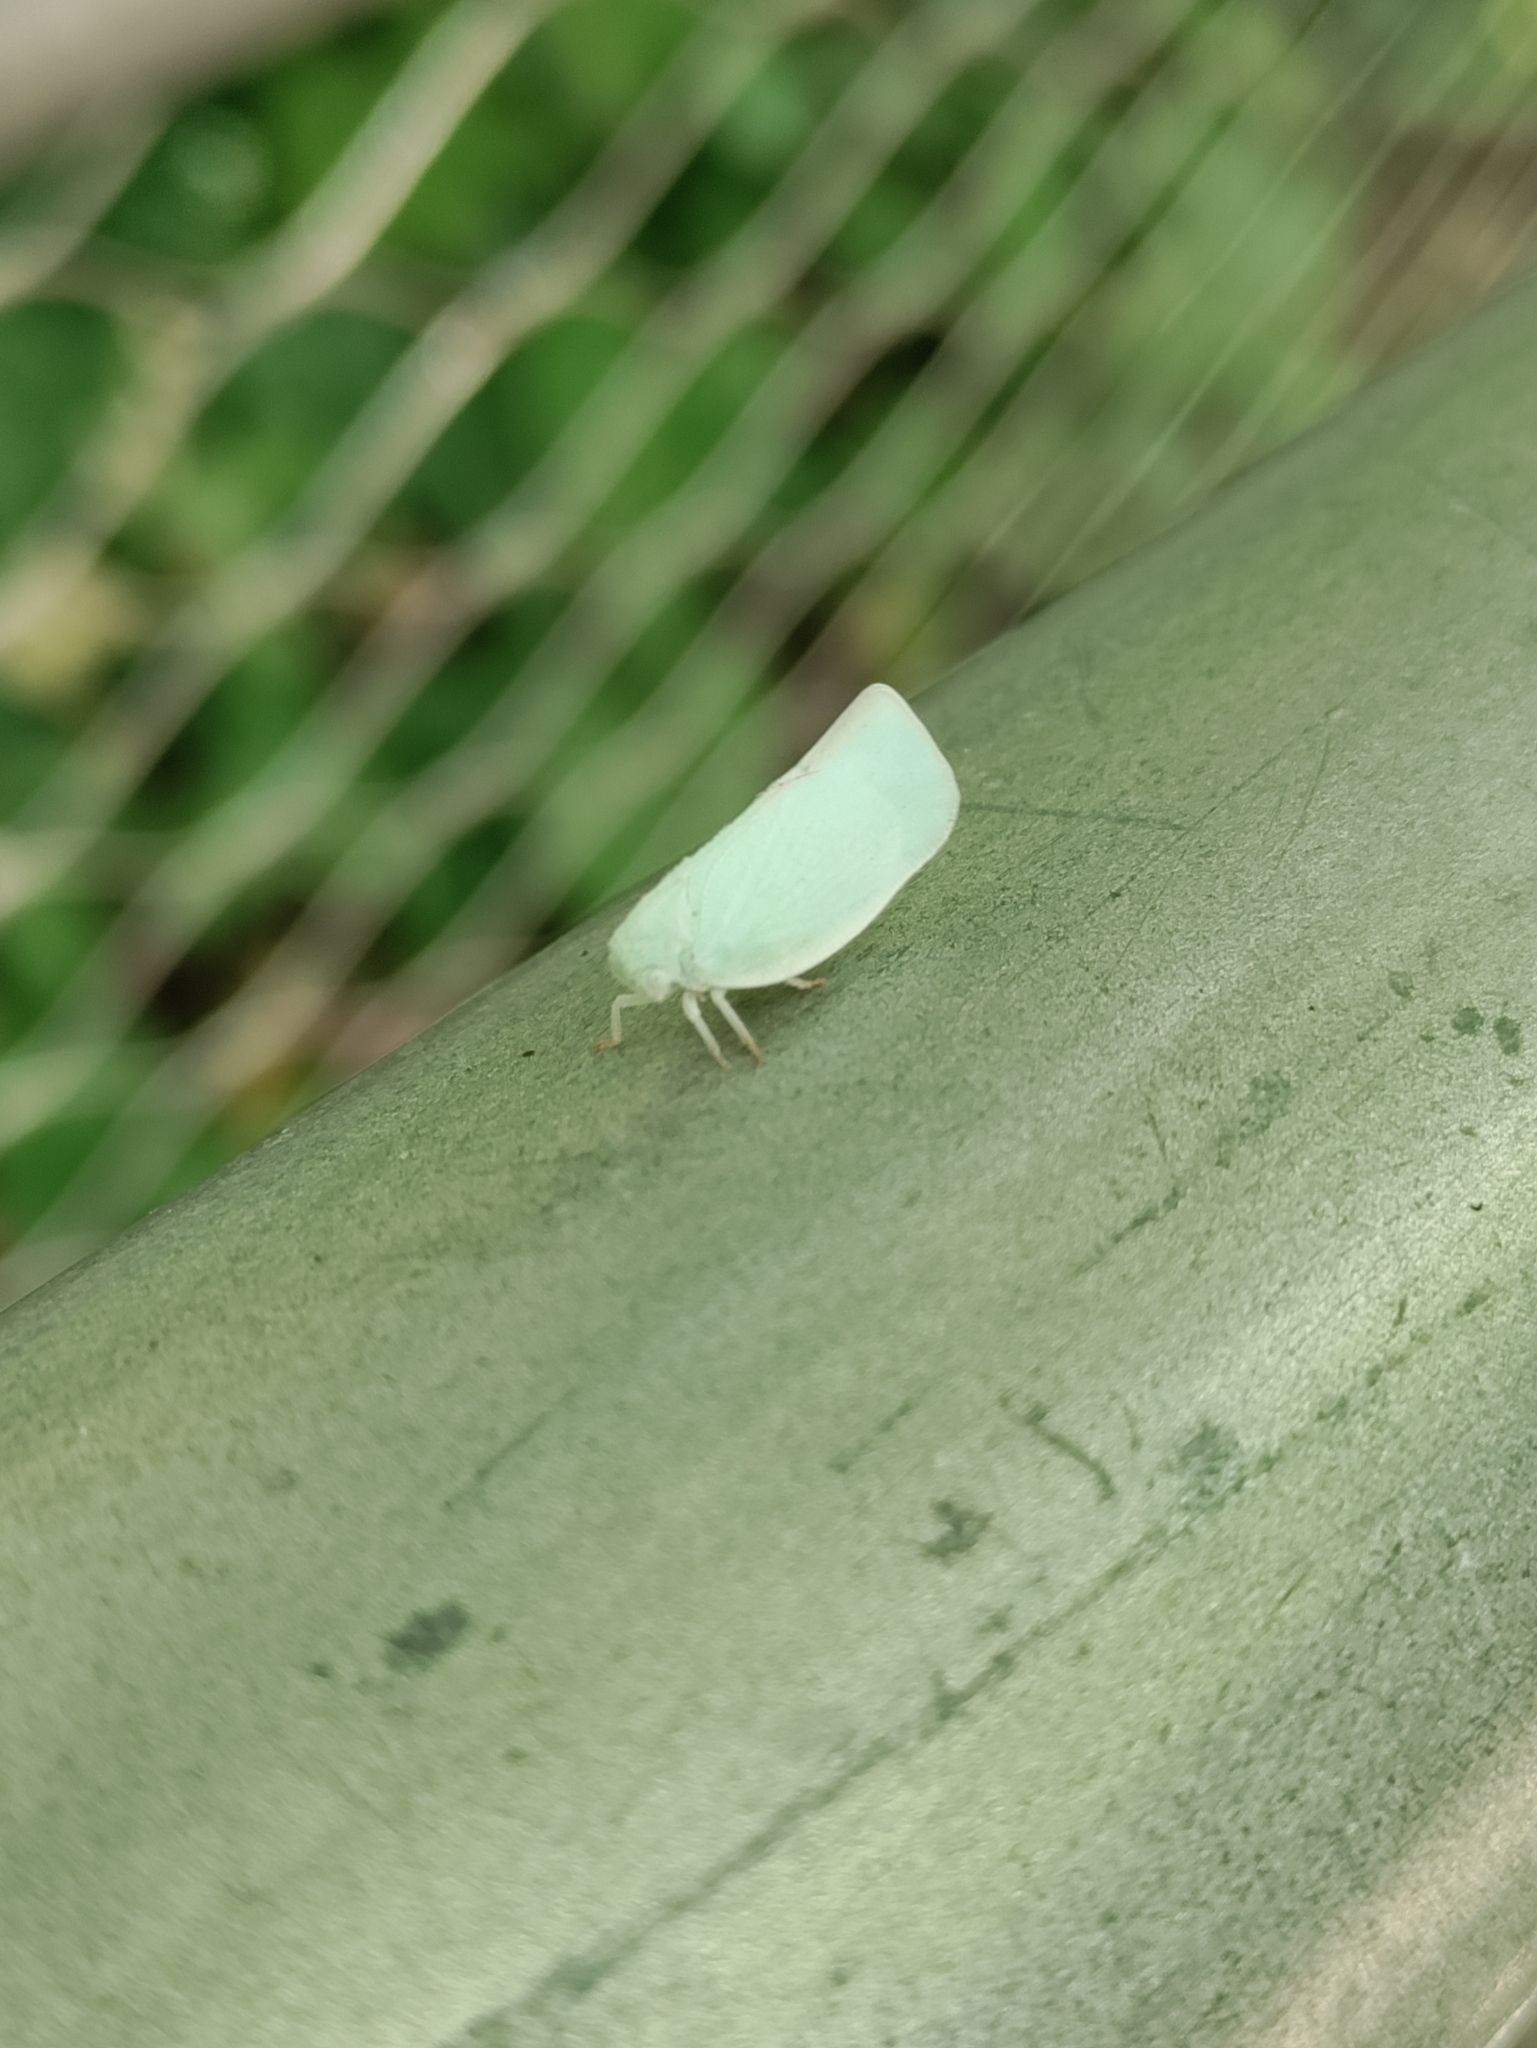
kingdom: Animalia
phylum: Arthropoda
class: Insecta
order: Hemiptera
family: Flatidae
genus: Flatormenis
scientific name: Flatormenis proxima
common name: Northern flatid planthopper
